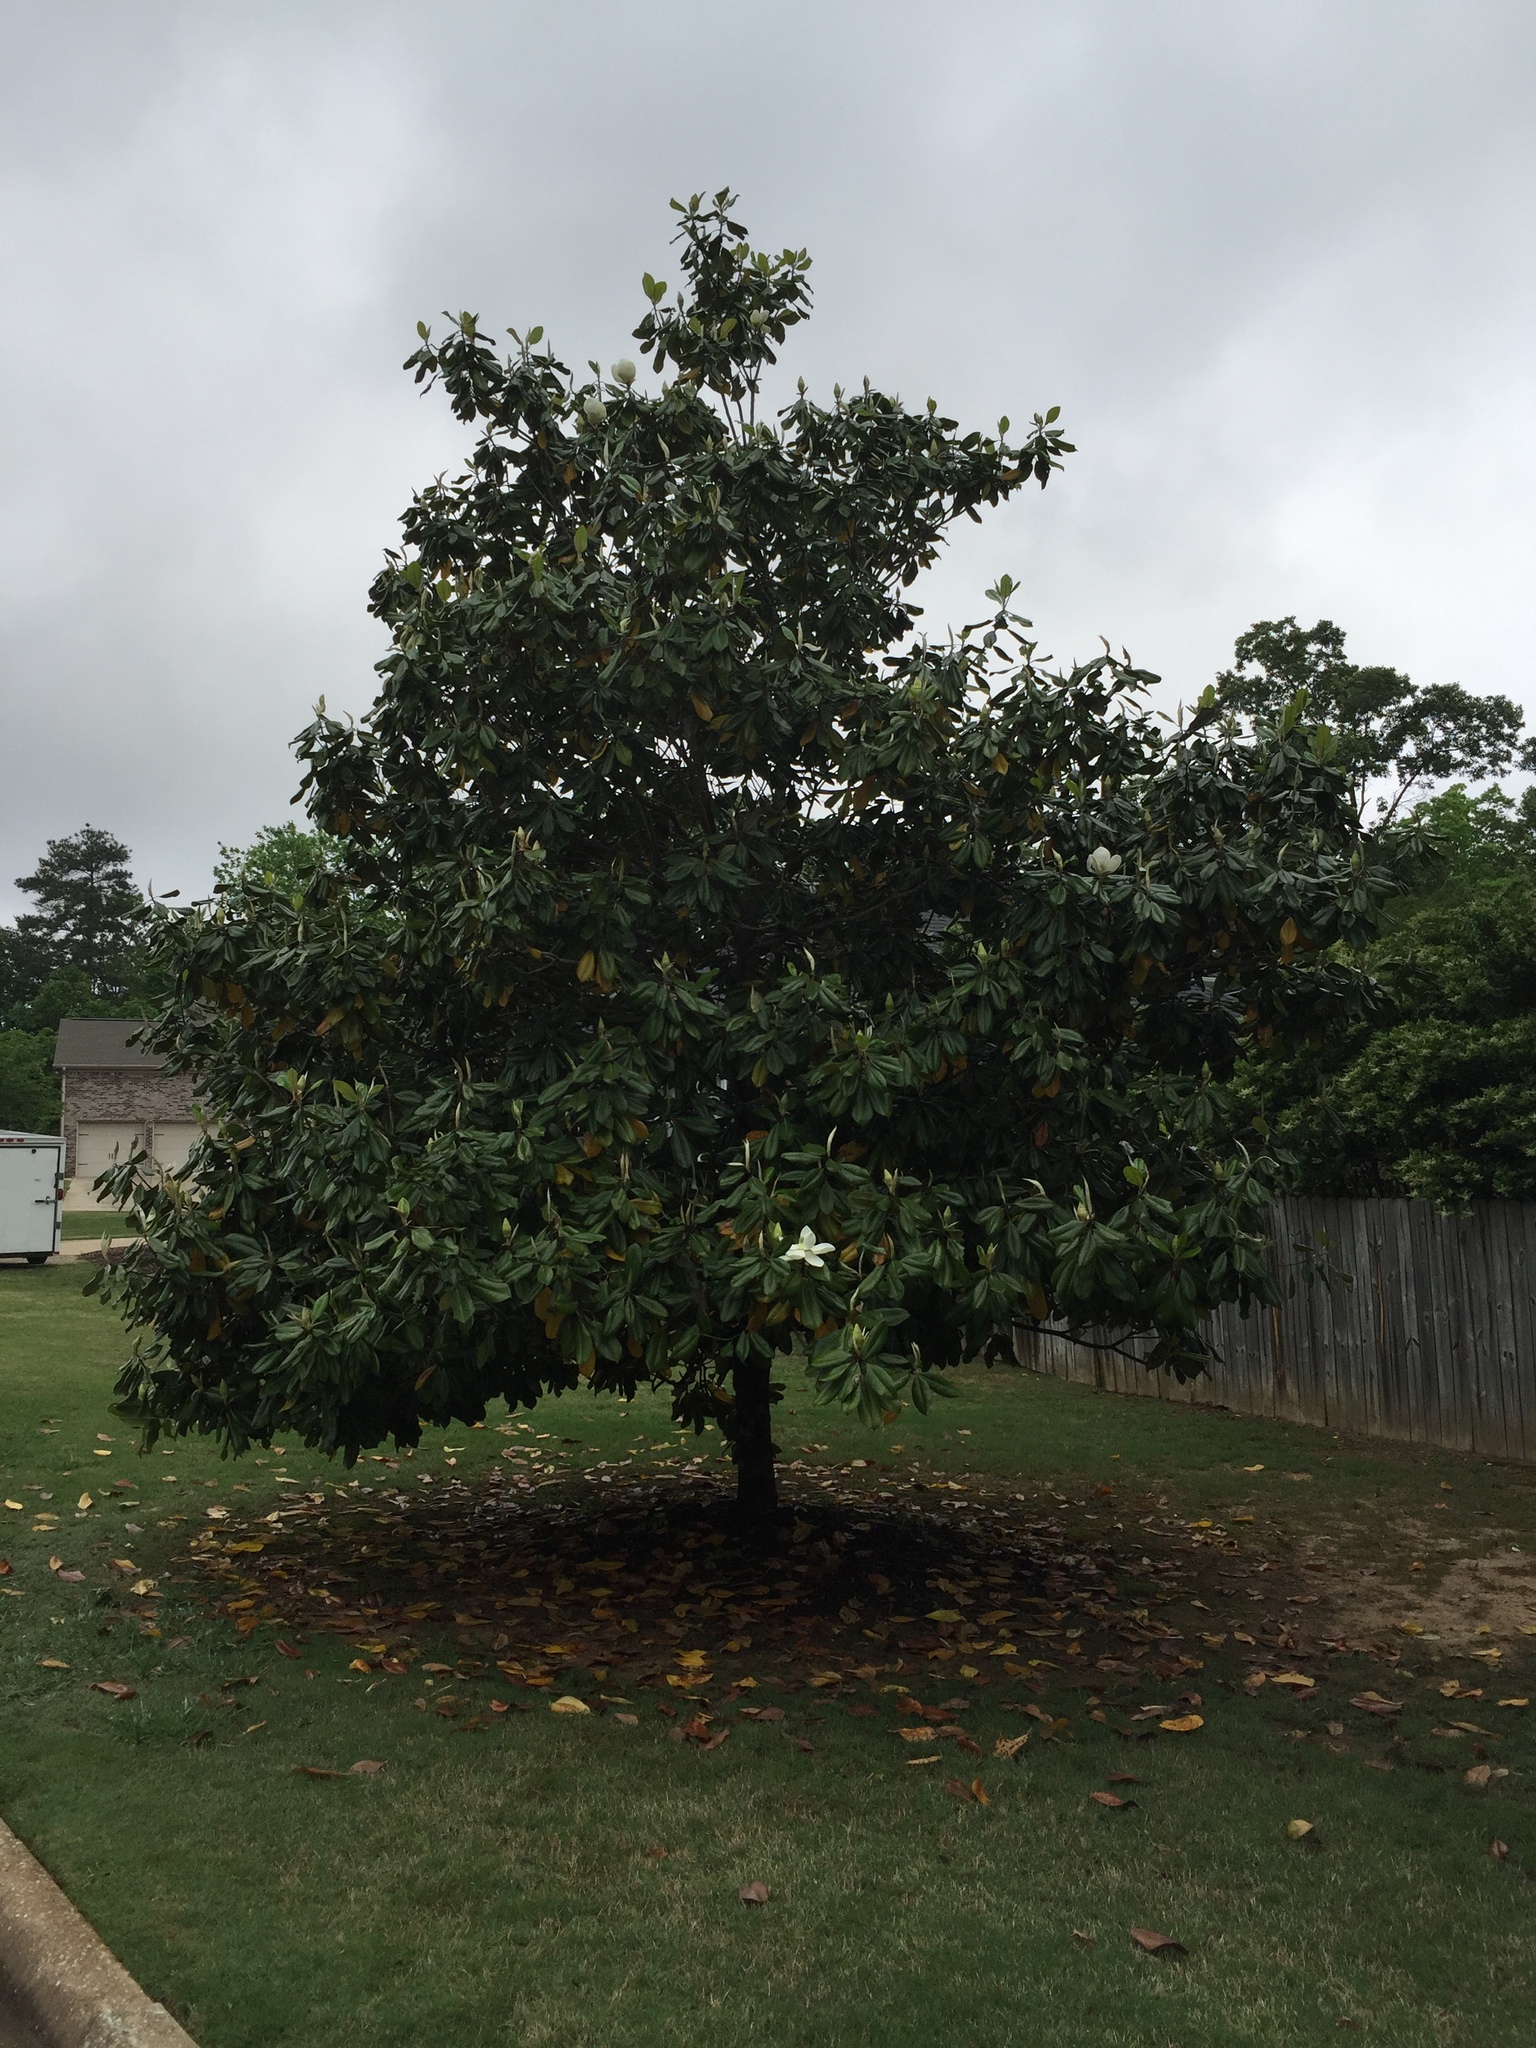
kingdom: Plantae
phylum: Tracheophyta
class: Magnoliopsida
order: Magnoliales
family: Magnoliaceae
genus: Magnolia
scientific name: Magnolia grandiflora
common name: Southern magnolia
